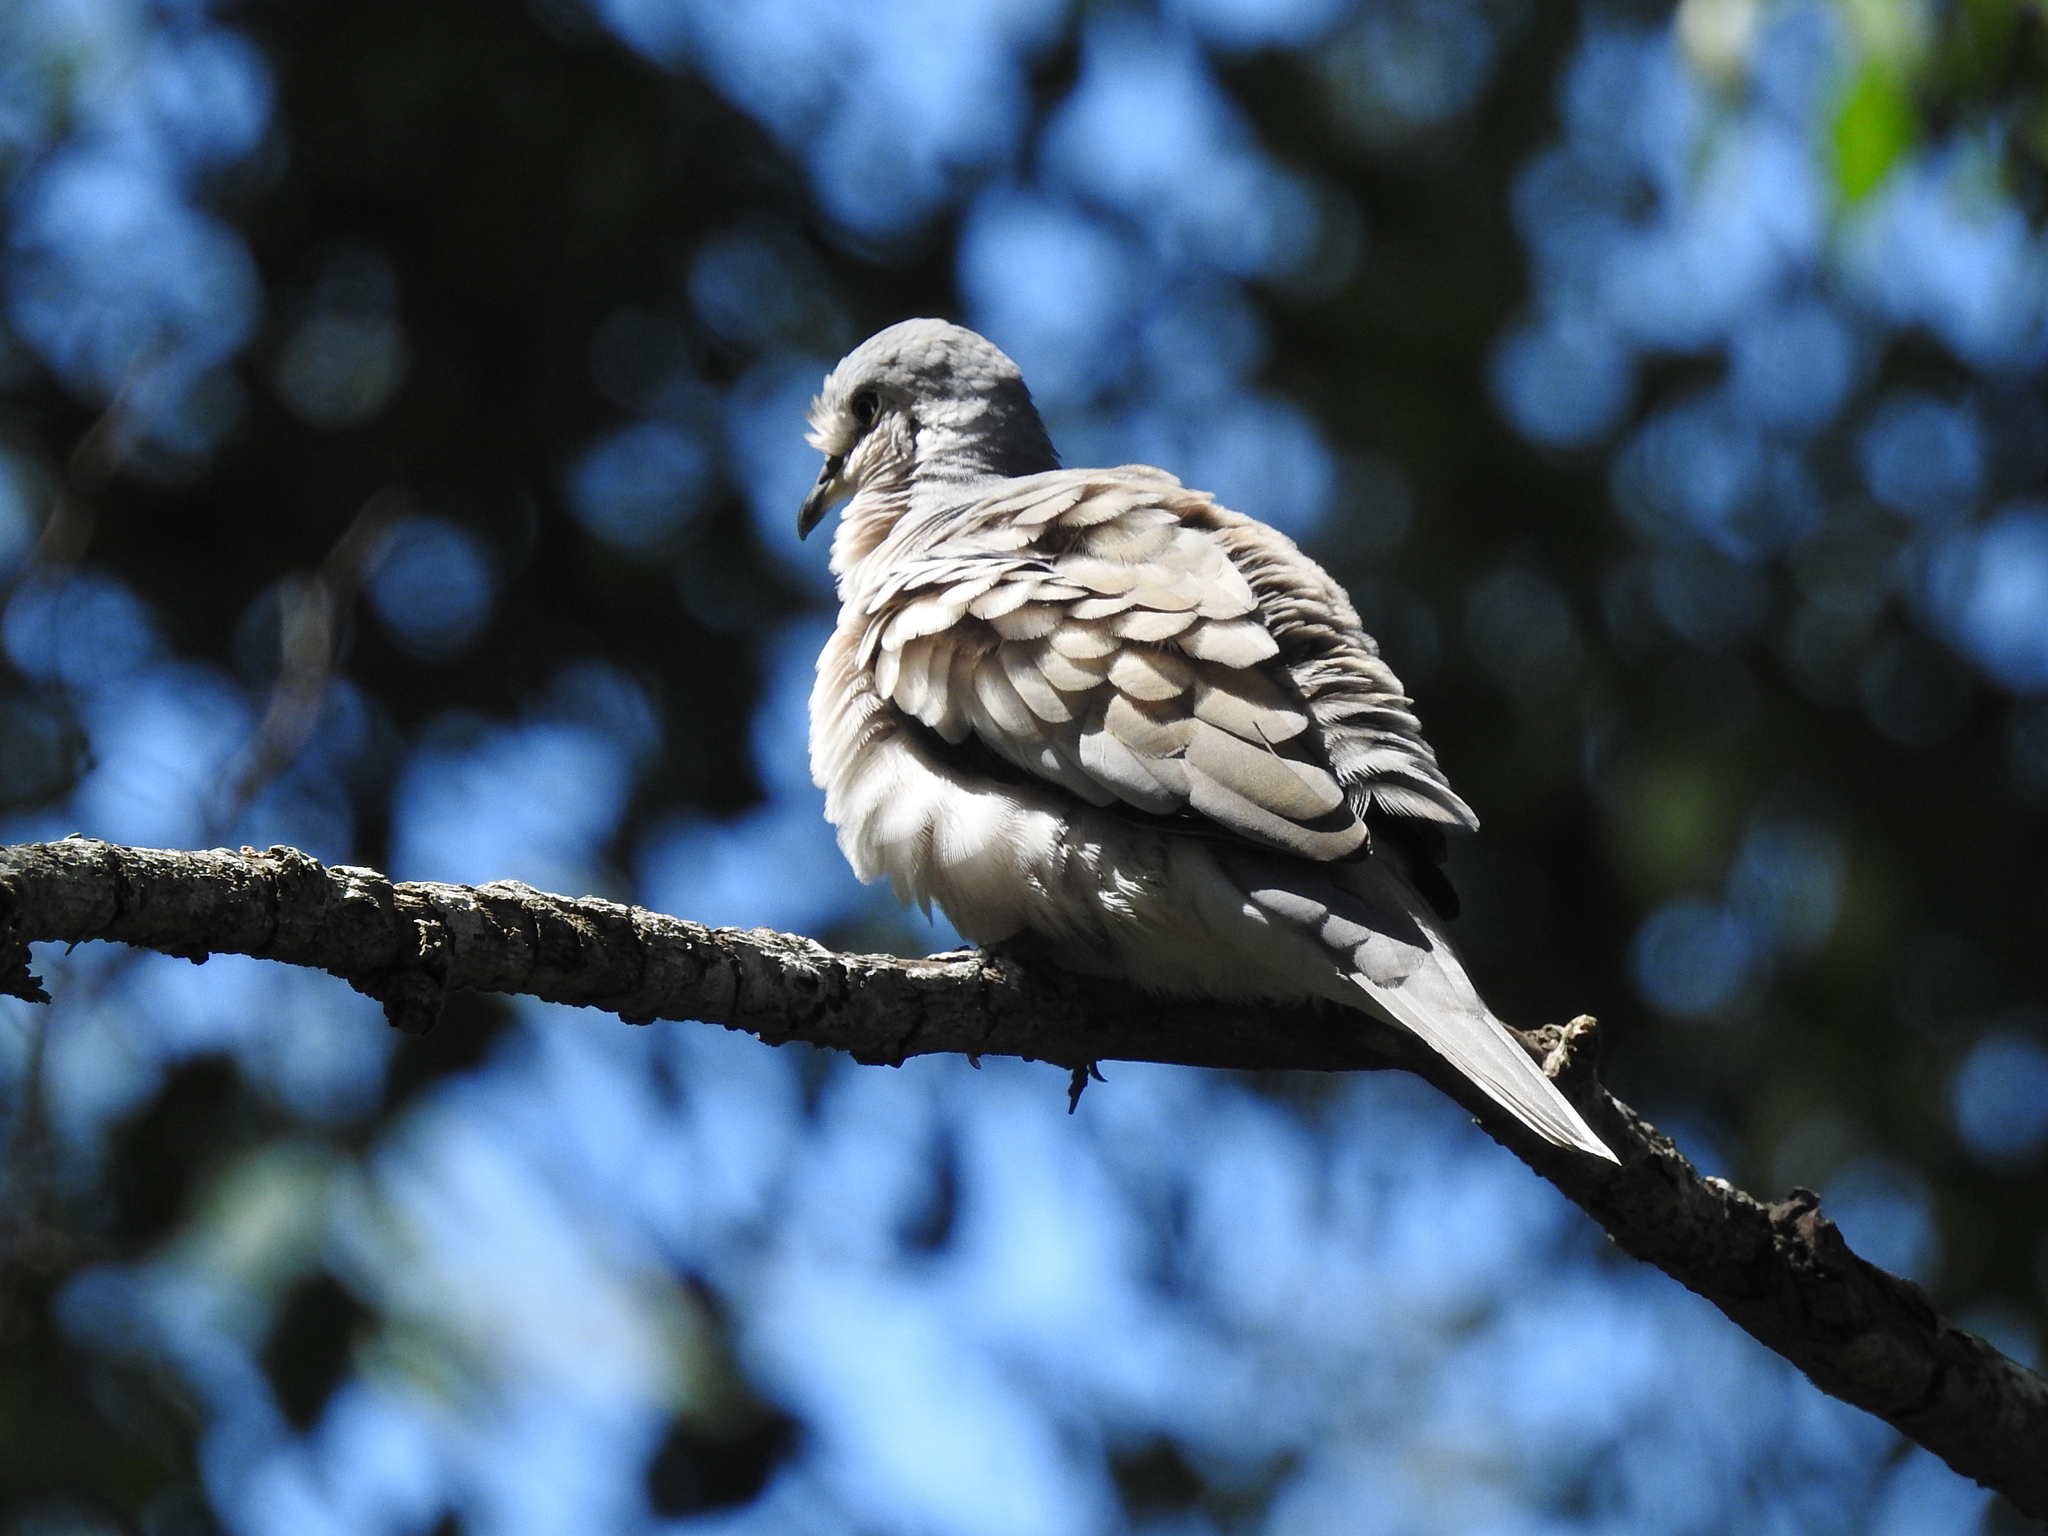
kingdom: Animalia
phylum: Chordata
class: Aves
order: Columbiformes
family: Columbidae
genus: Columbina
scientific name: Columbina picui
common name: Picui ground dove
